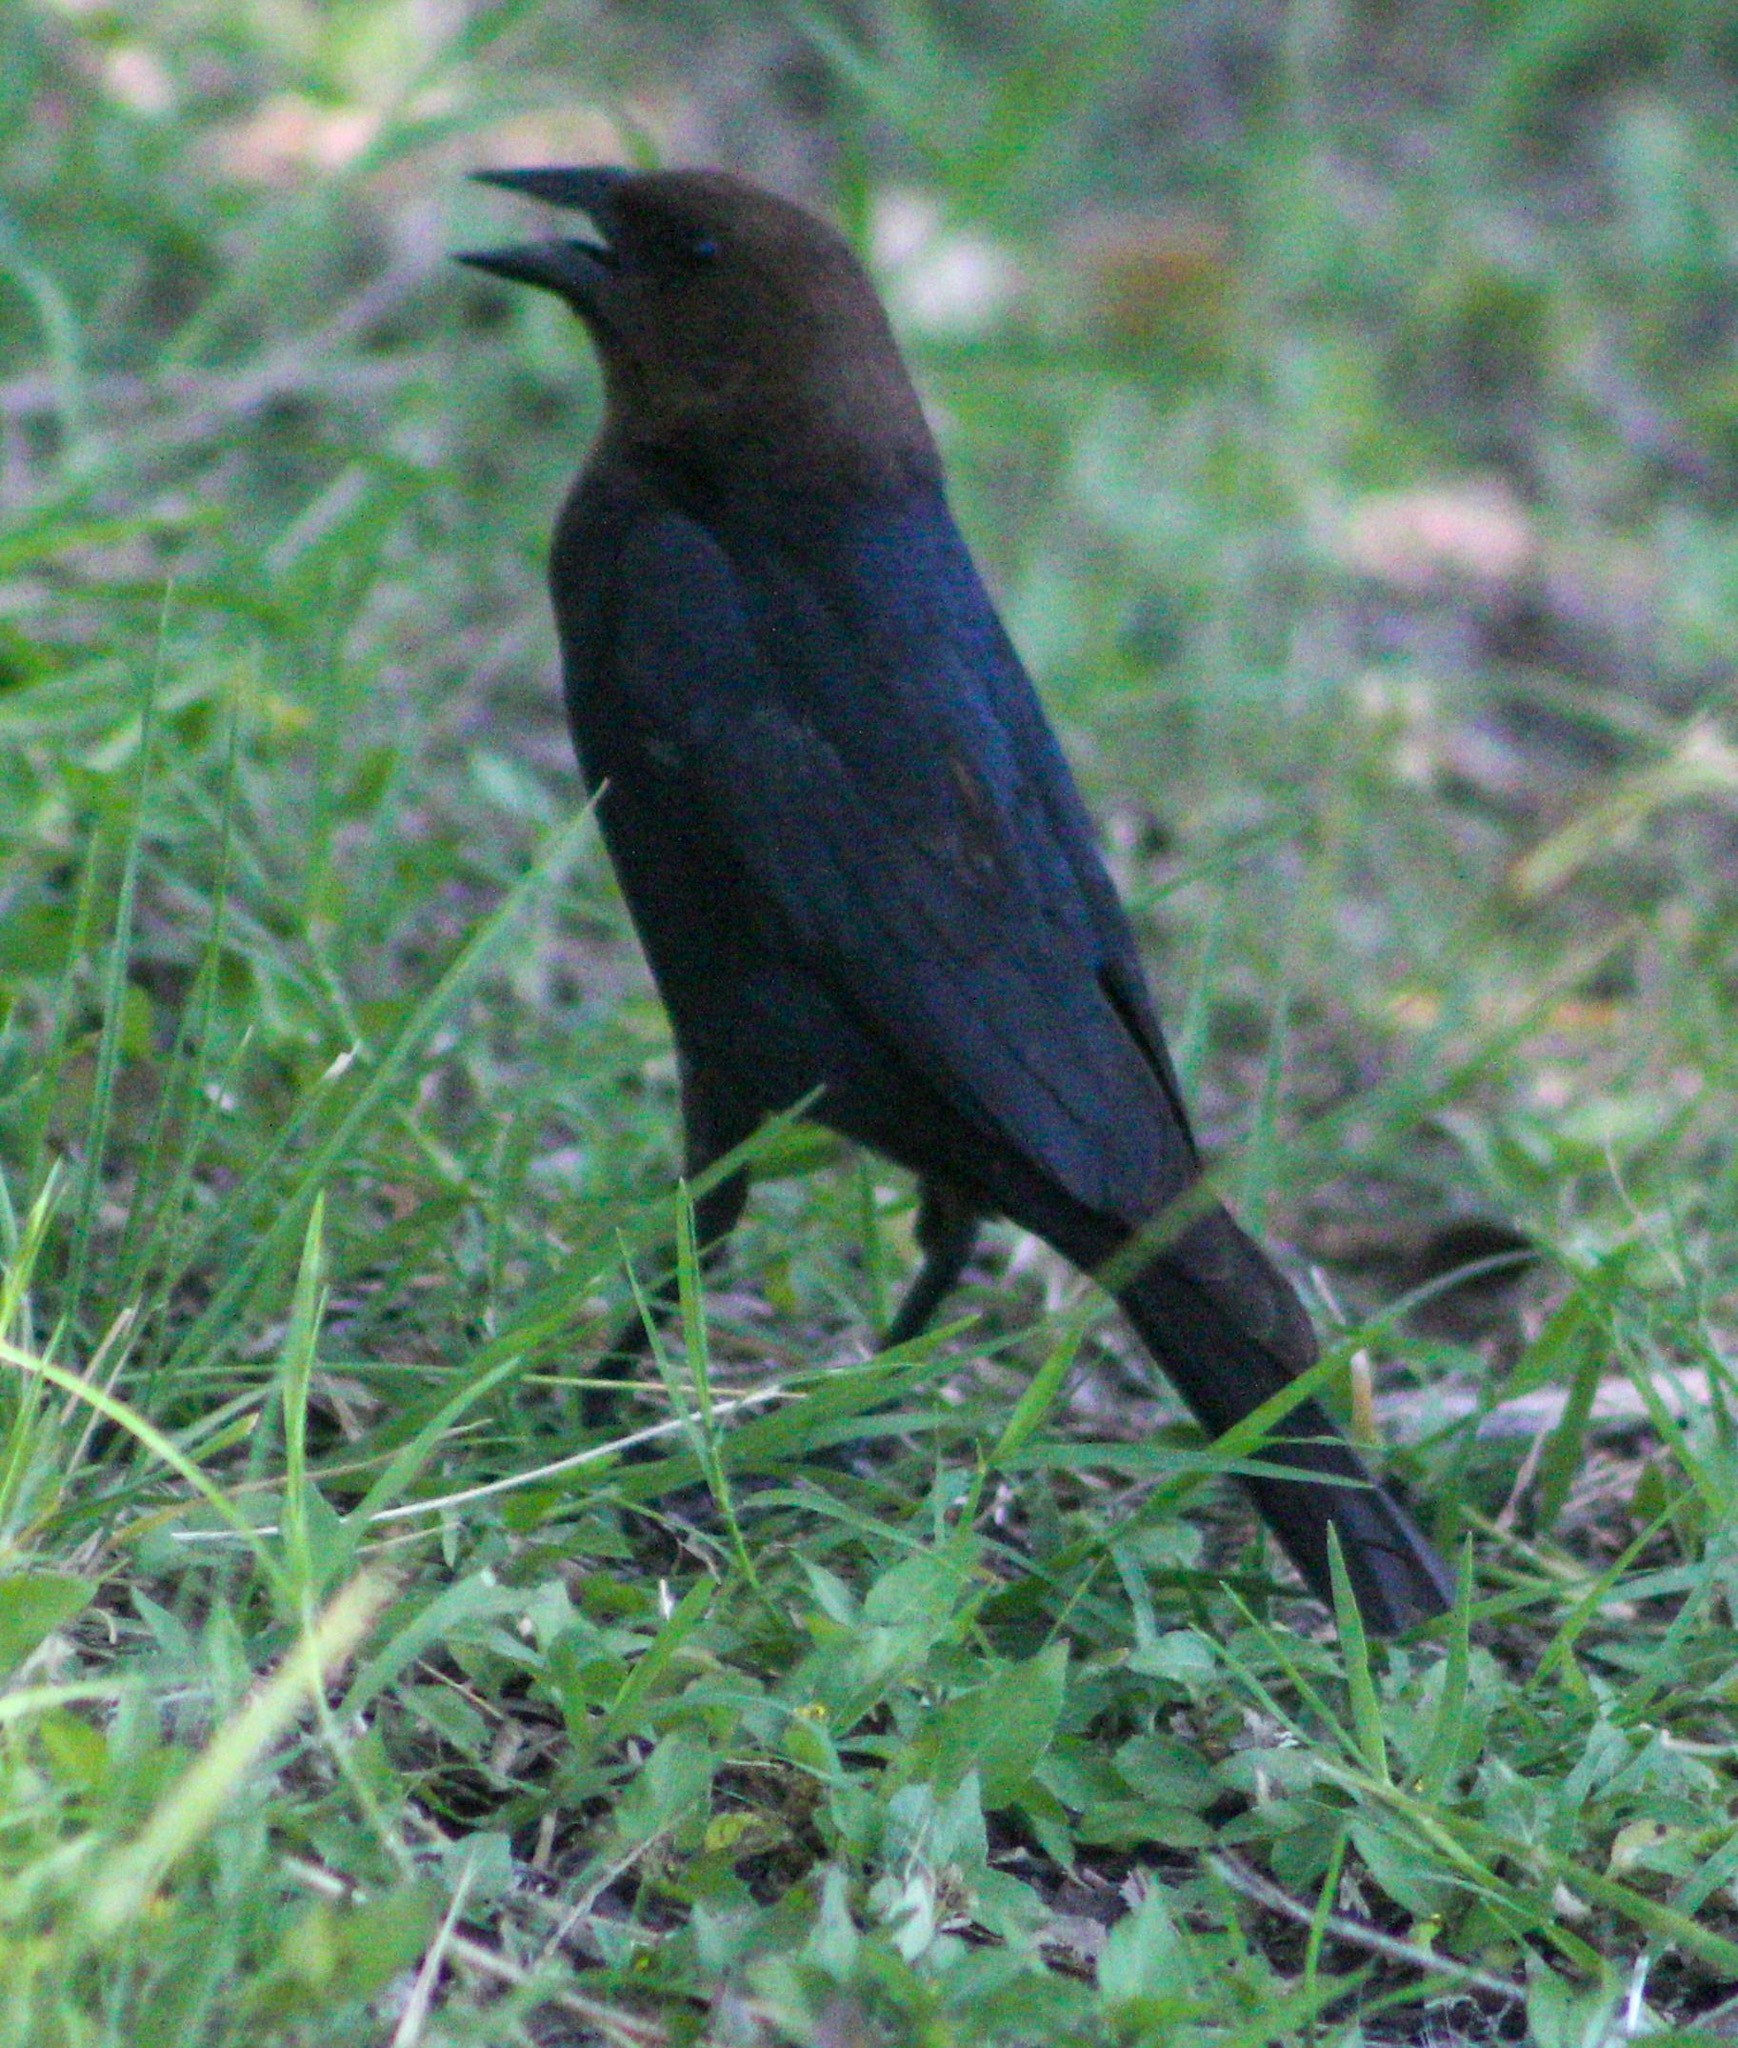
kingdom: Animalia
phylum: Chordata
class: Aves
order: Passeriformes
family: Icteridae
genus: Molothrus
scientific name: Molothrus ater
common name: Brown-headed cowbird
